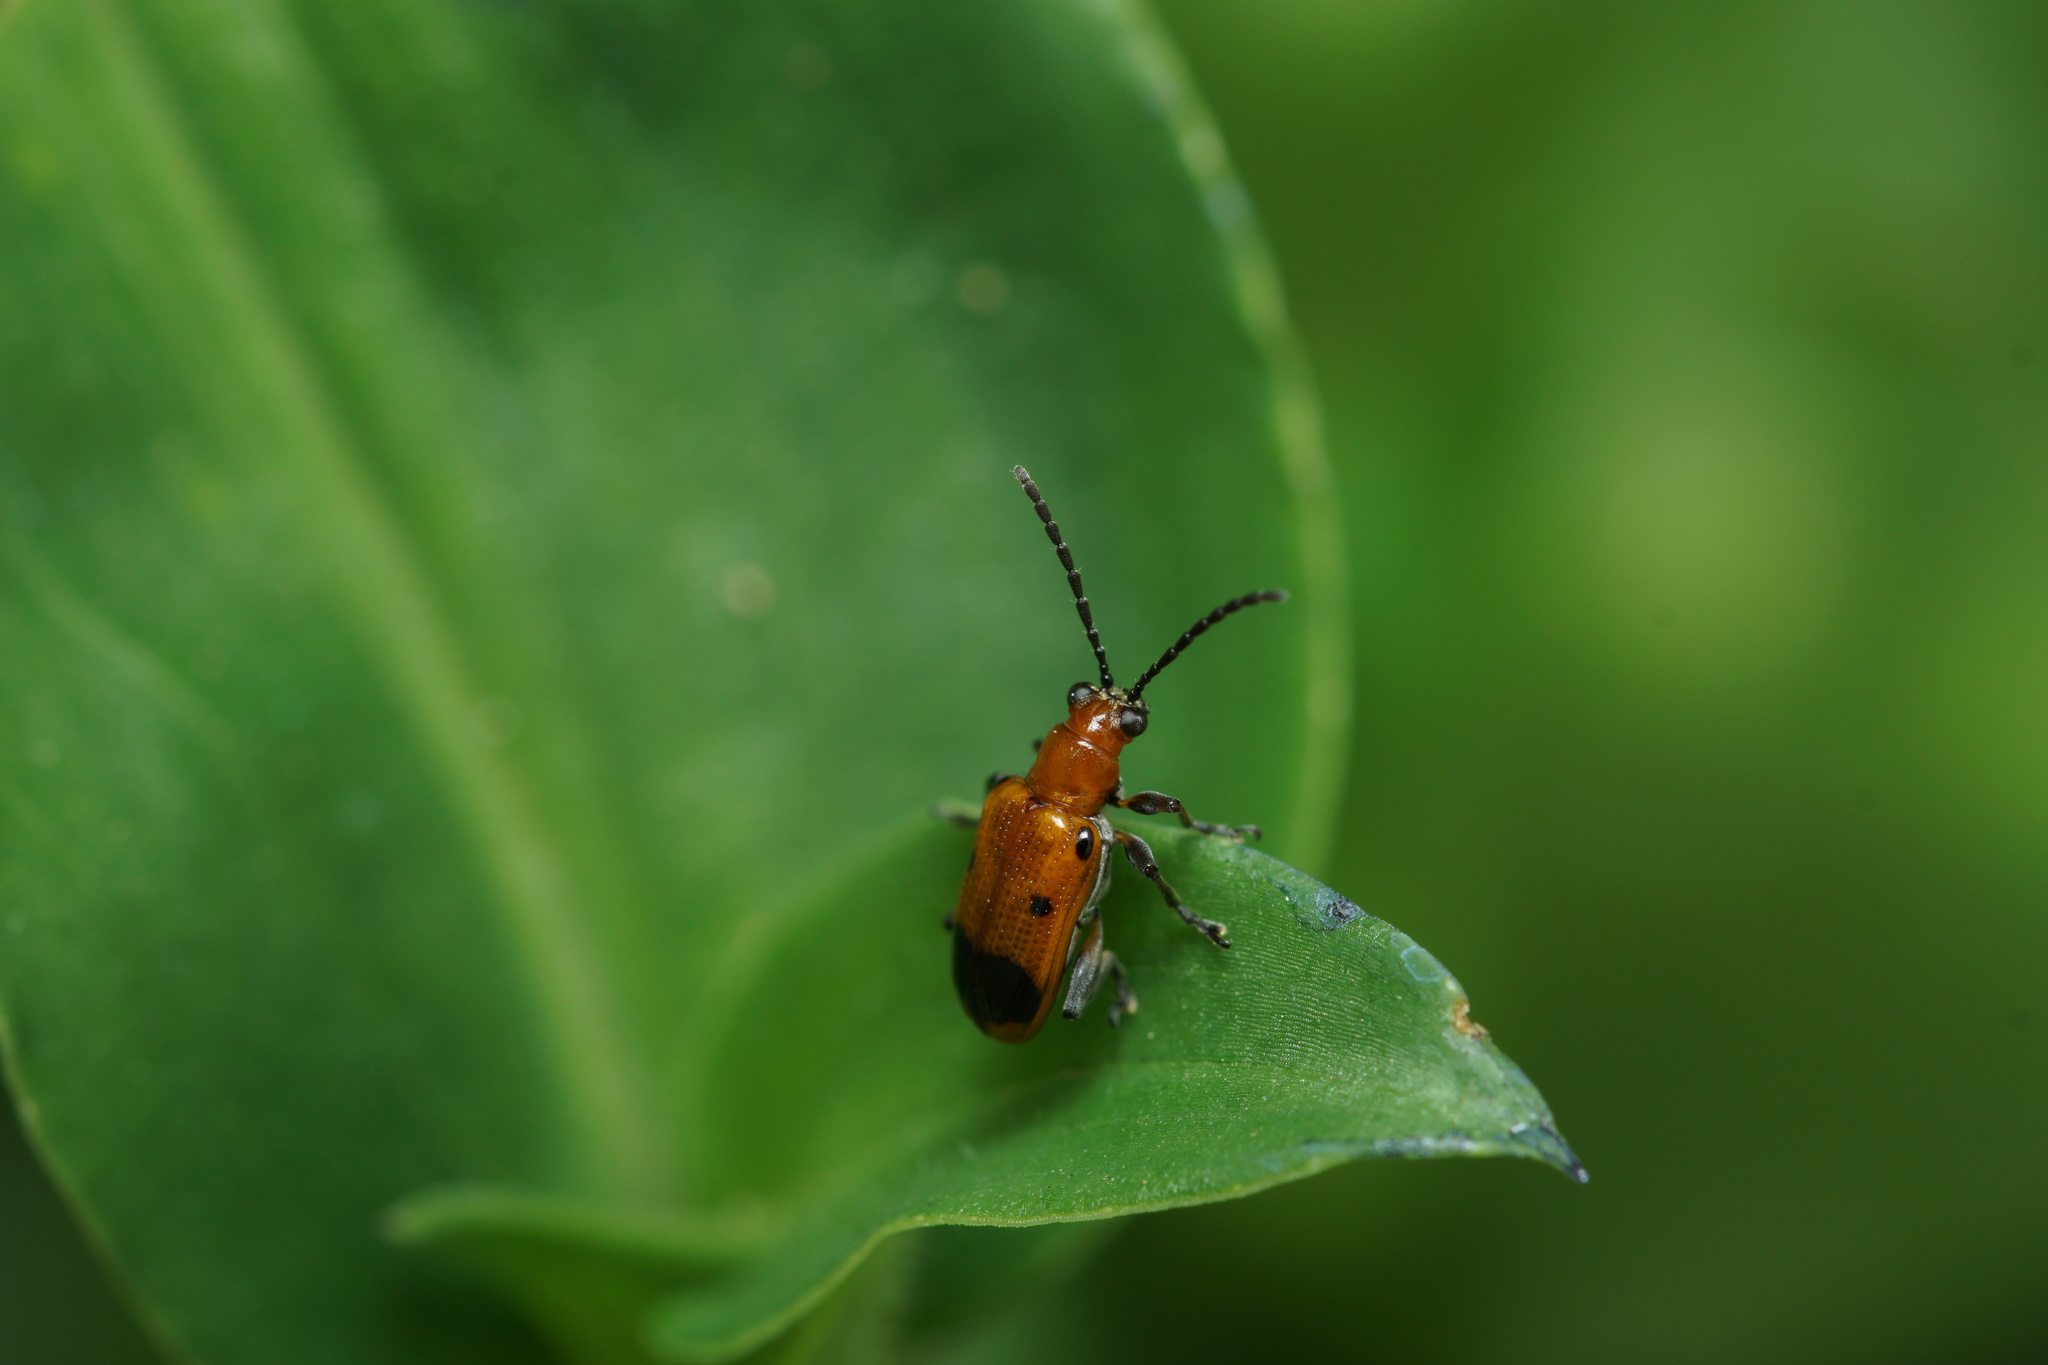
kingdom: Animalia
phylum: Arthropoda
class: Insecta
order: Coleoptera
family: Chrysomelidae
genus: Neolema
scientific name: Neolema dorsalis
